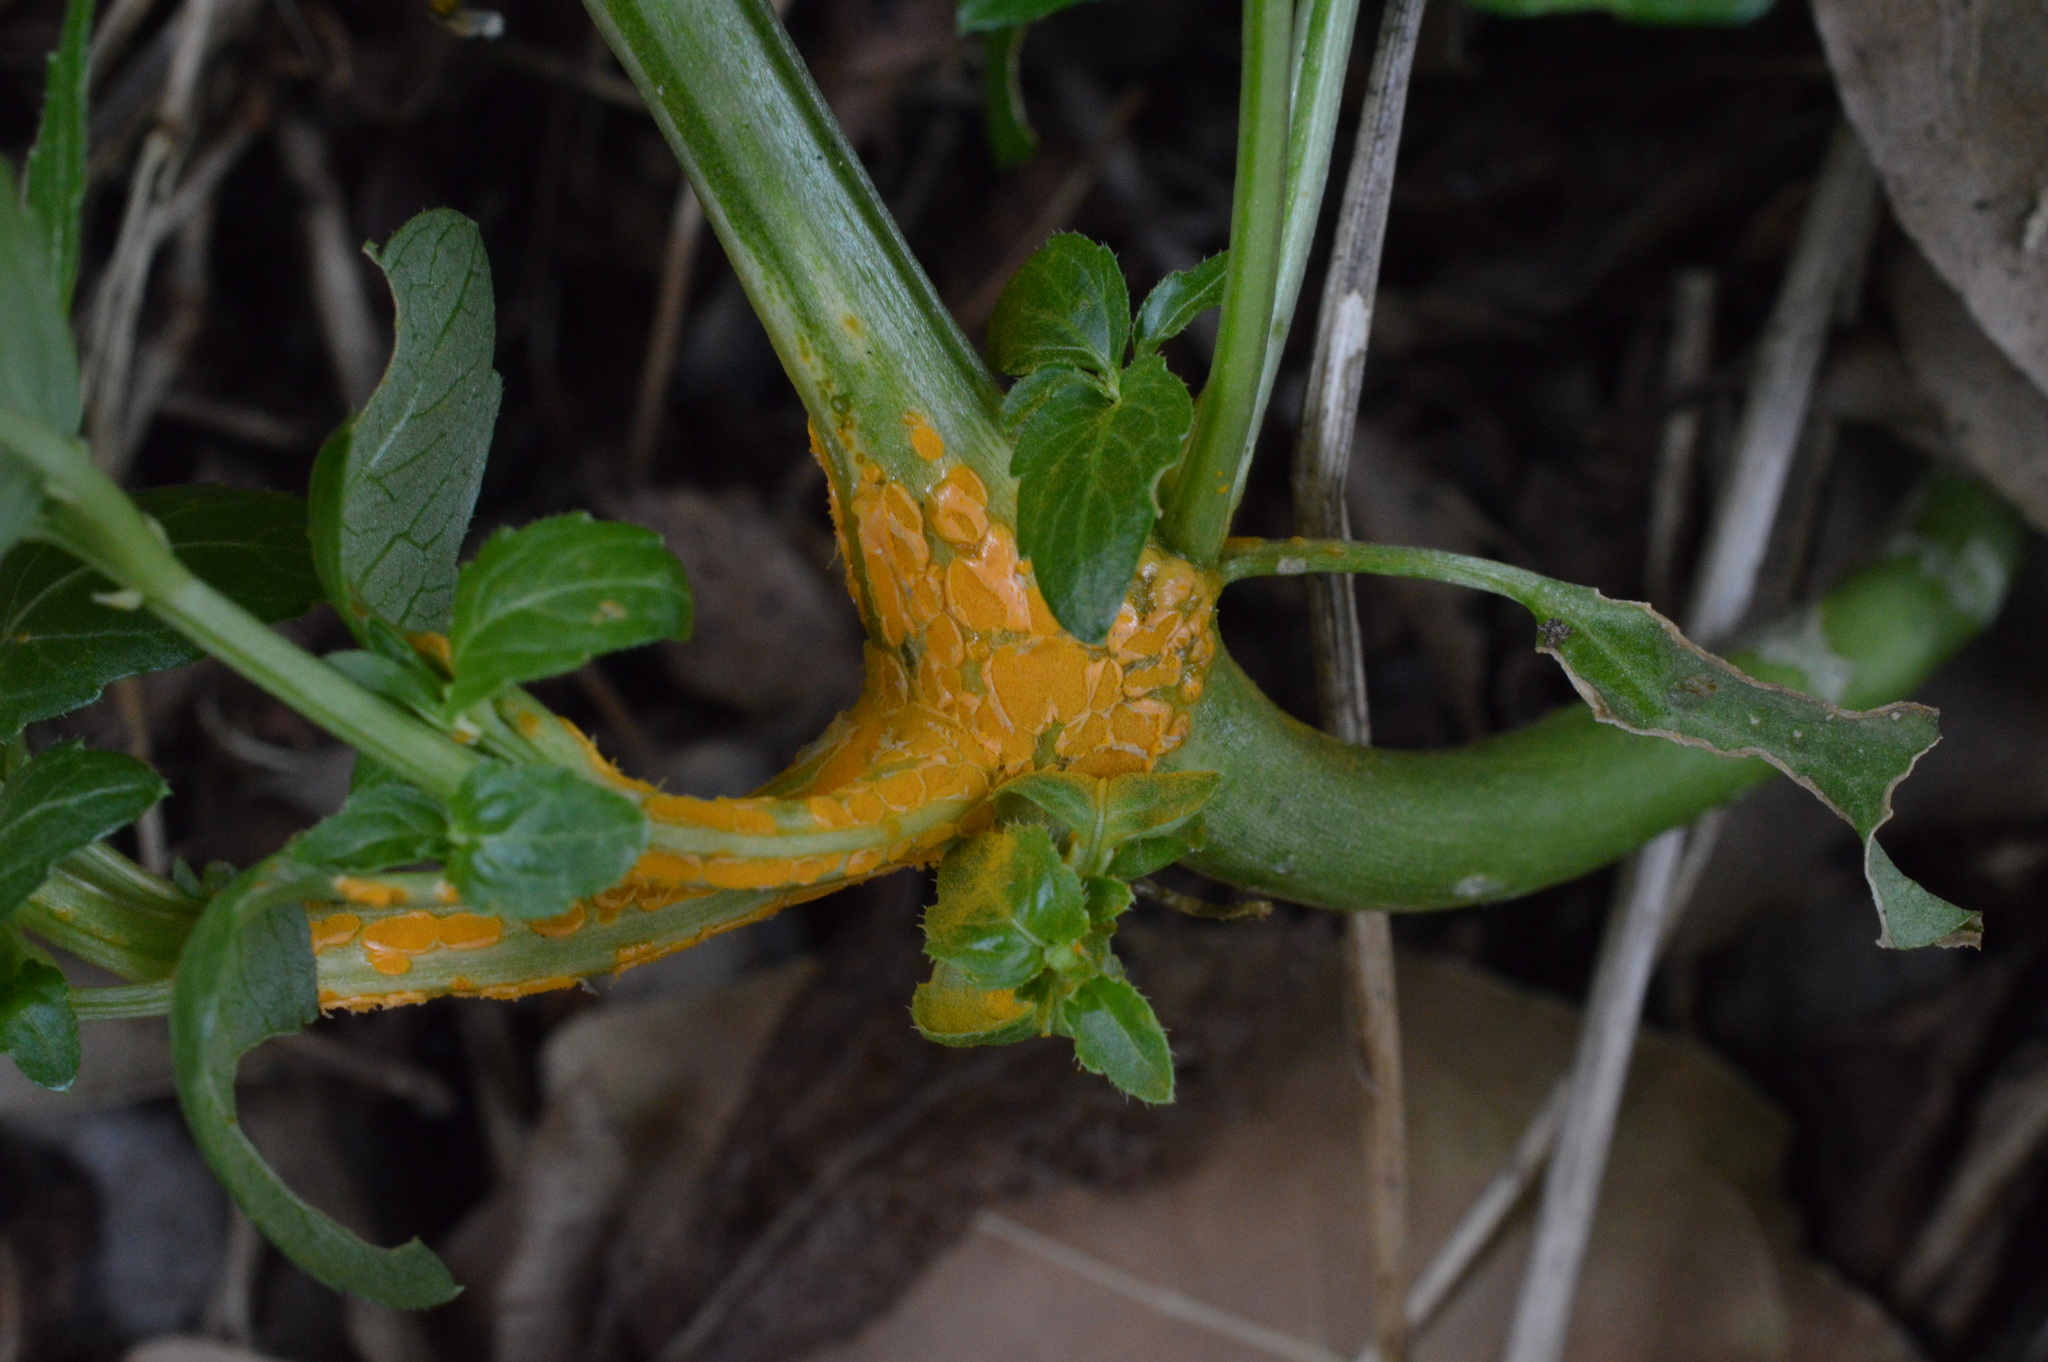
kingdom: Fungi
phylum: Basidiomycota
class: Pucciniomycetes
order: Pucciniales
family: Melampsoraceae
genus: Melampsora
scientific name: Melampsora pulcherrima
